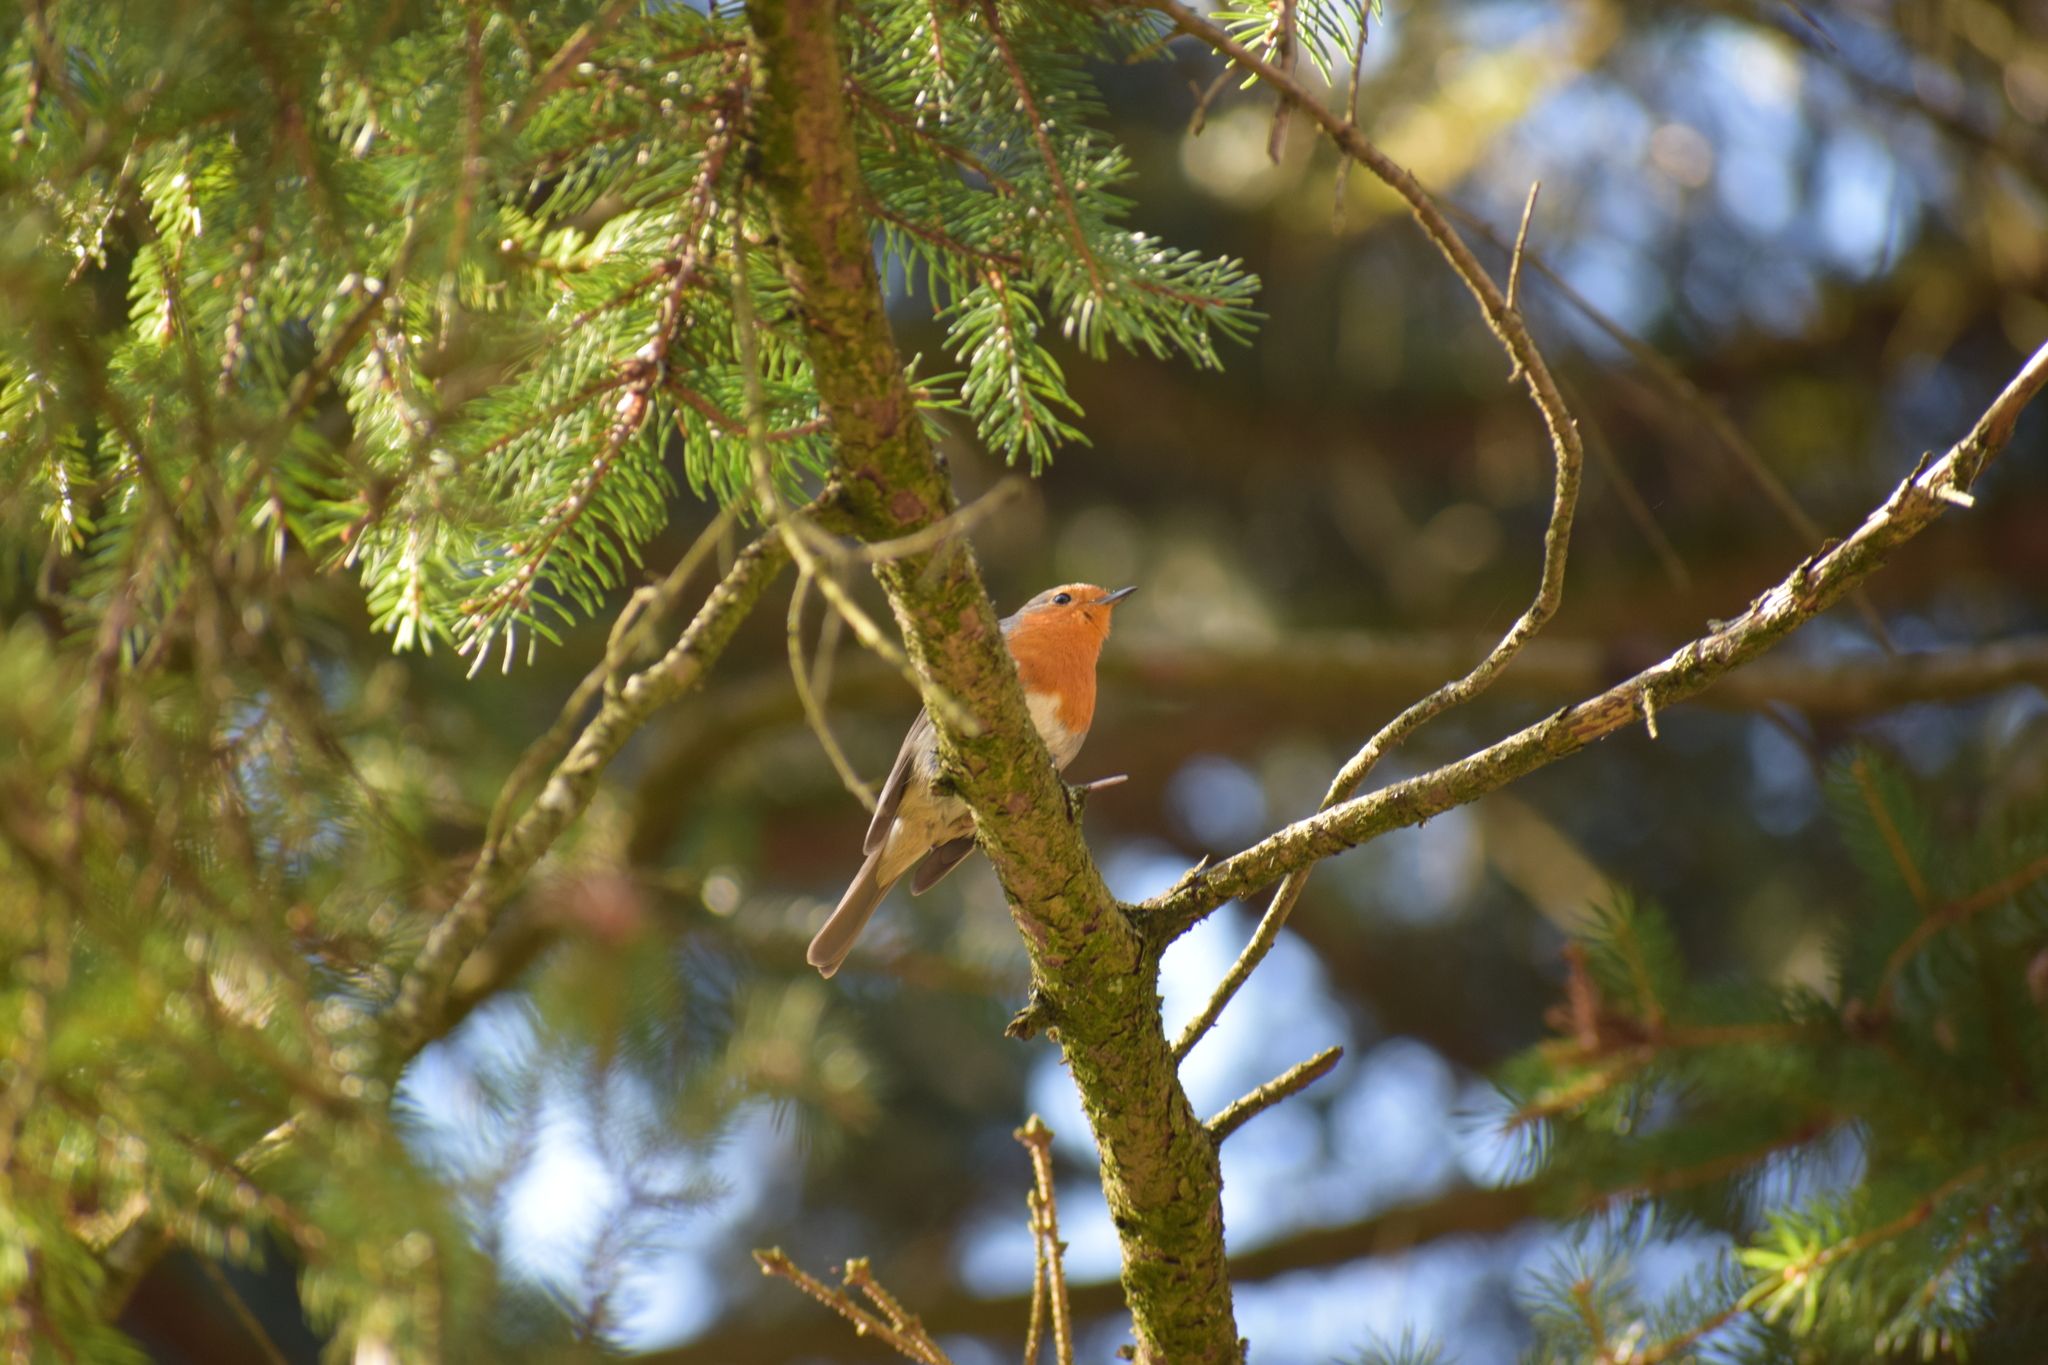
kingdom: Animalia
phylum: Chordata
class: Aves
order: Passeriformes
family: Muscicapidae
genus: Erithacus
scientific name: Erithacus rubecula
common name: European robin
